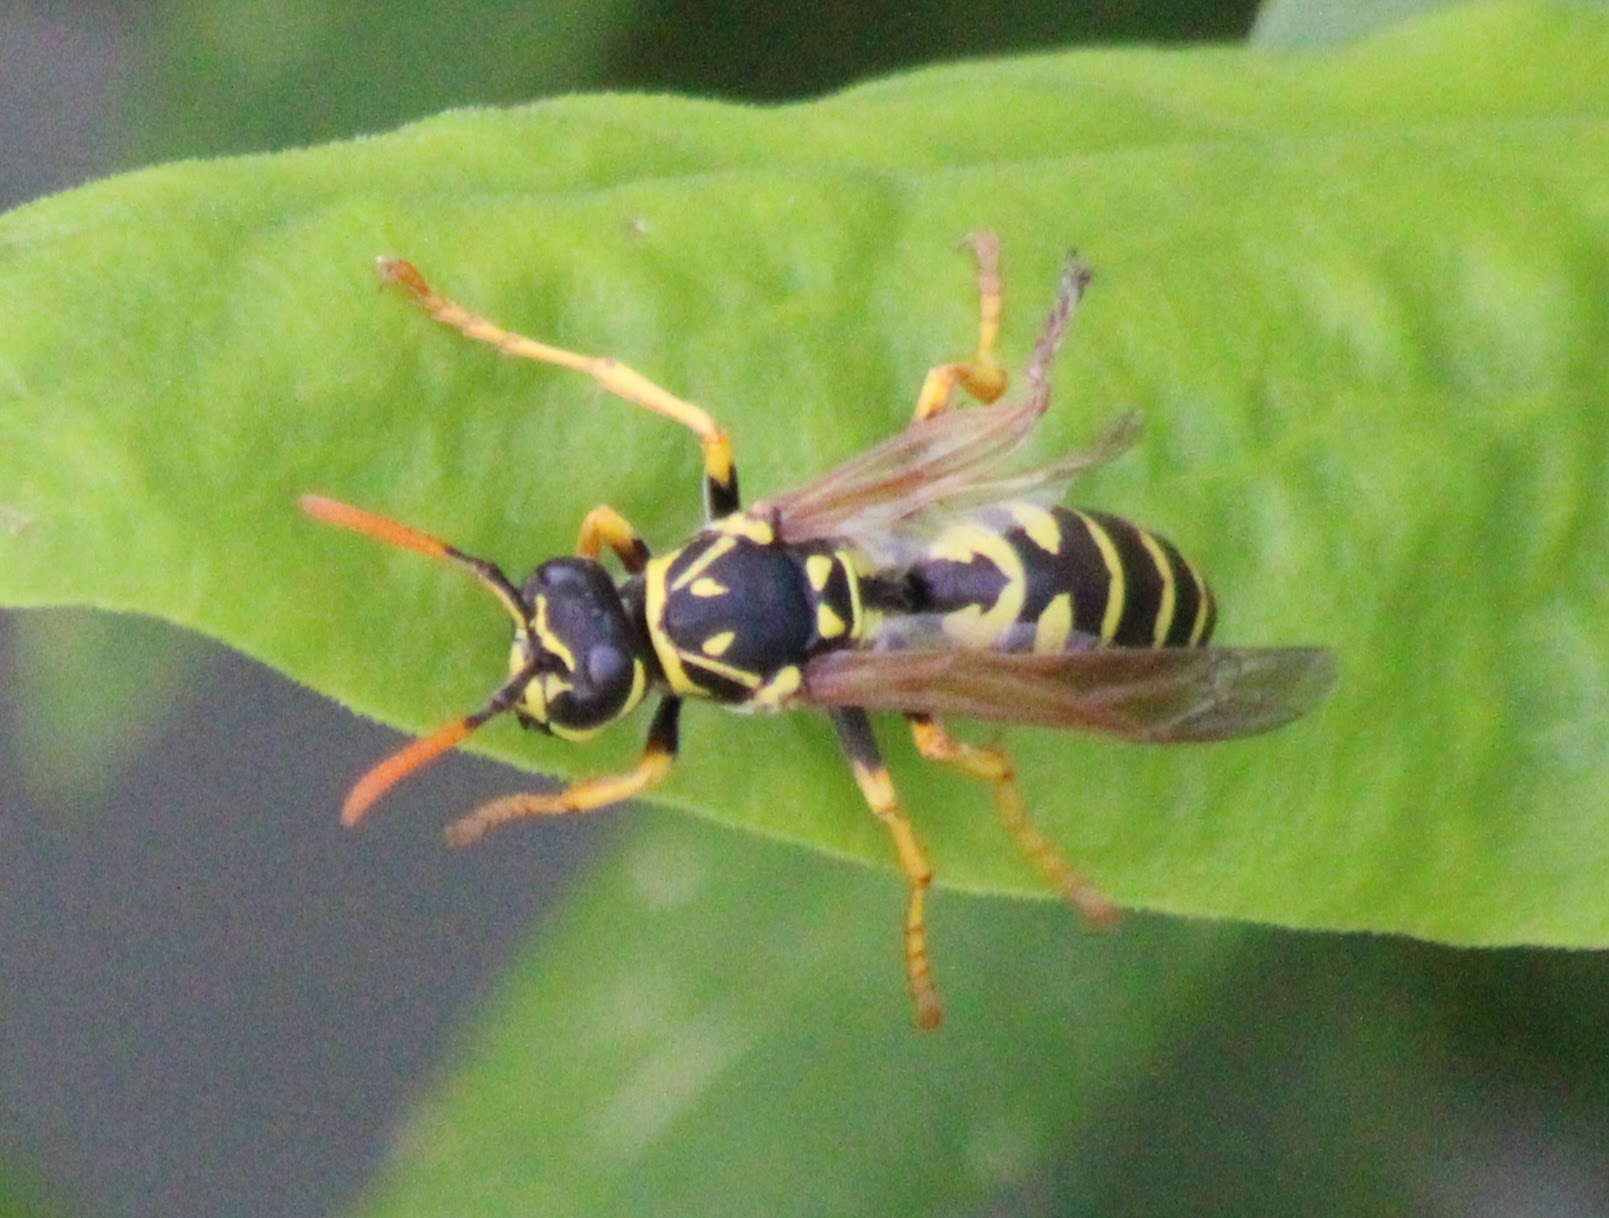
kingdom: Animalia
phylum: Arthropoda
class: Insecta
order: Hymenoptera
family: Eumenidae
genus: Polistes
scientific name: Polistes dominula
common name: Paper wasp
